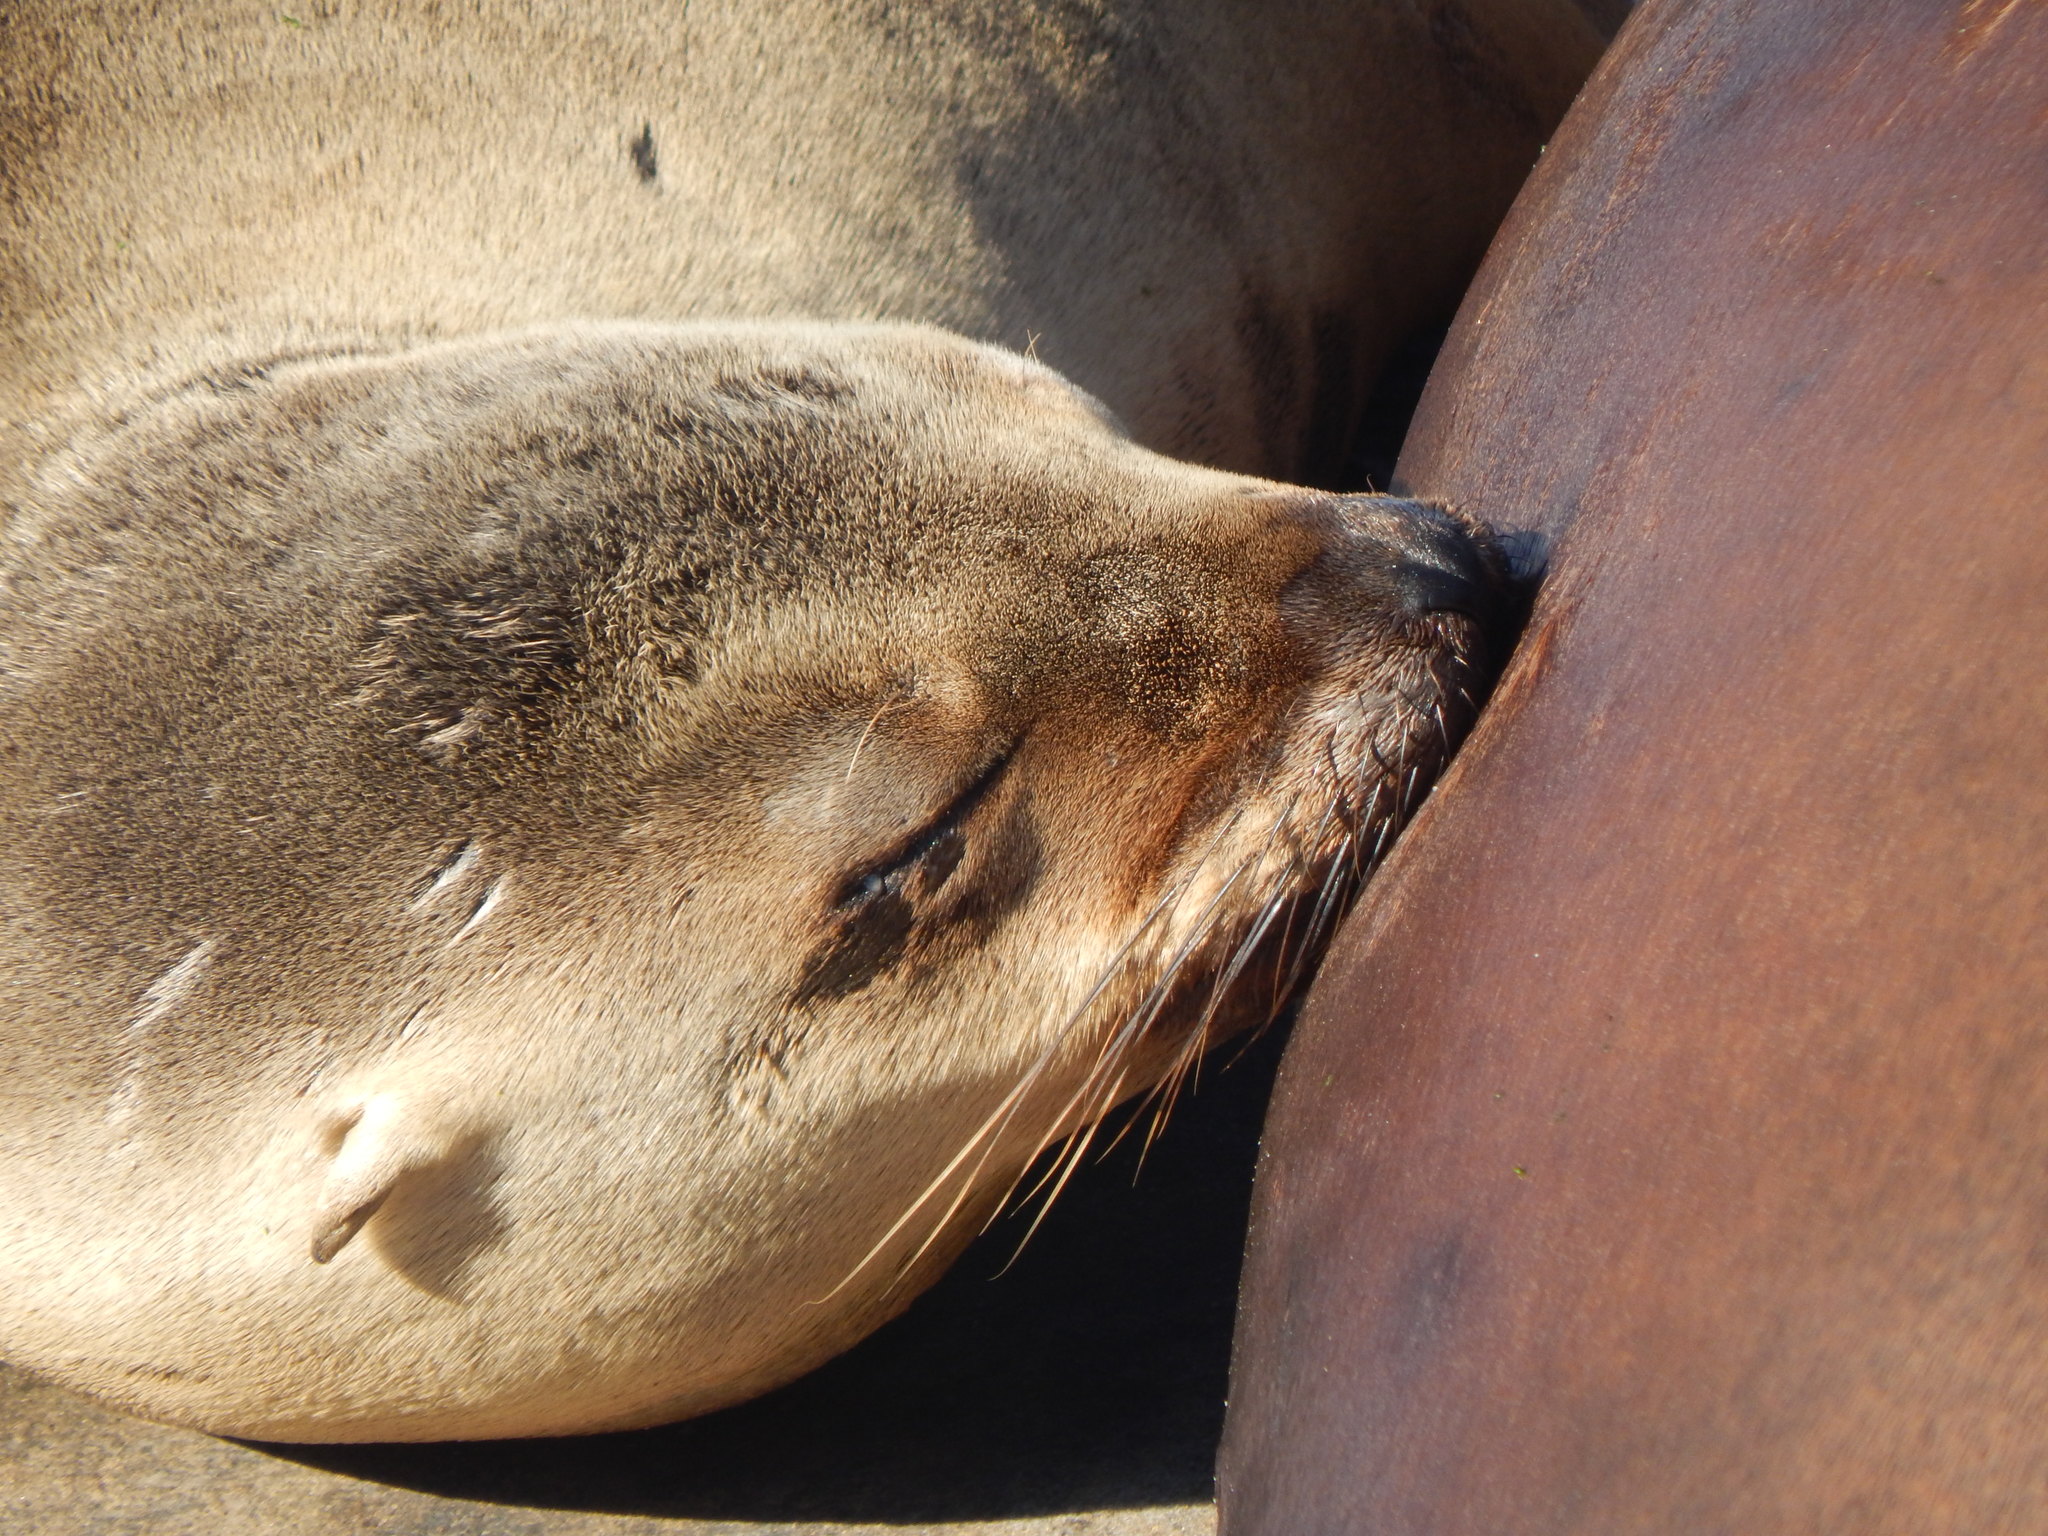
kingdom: Animalia
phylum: Chordata
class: Mammalia
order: Carnivora
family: Otariidae
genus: Zalophus
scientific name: Zalophus californianus
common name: California sea lion
